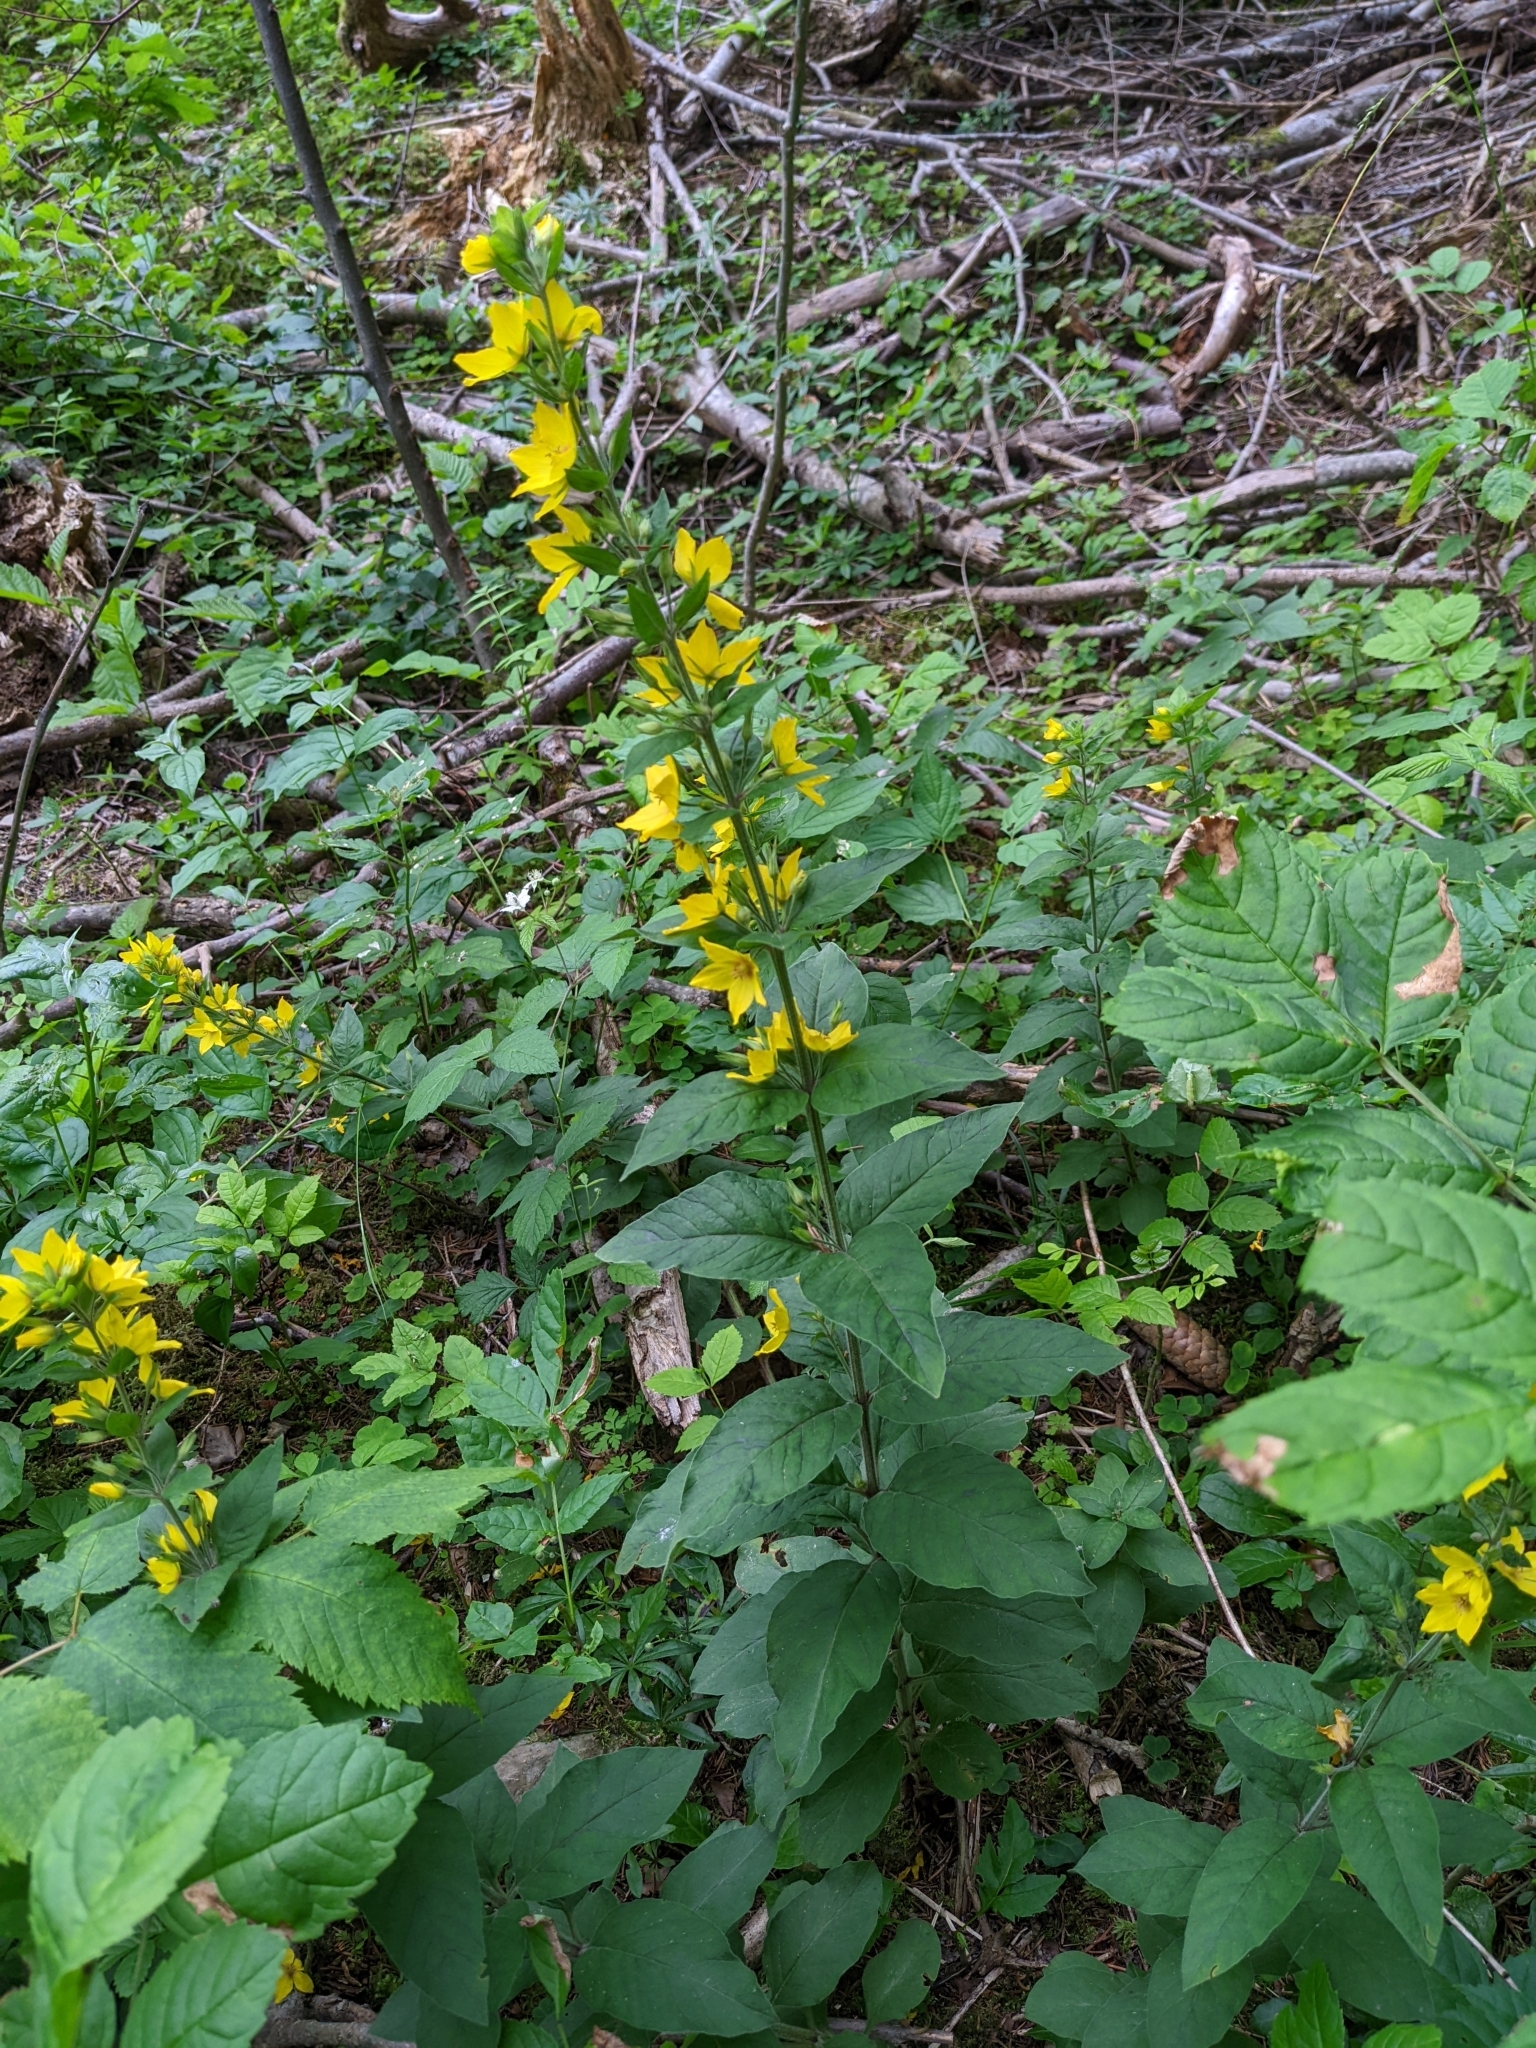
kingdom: Plantae
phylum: Tracheophyta
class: Magnoliopsida
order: Ericales
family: Primulaceae
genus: Lysimachia
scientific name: Lysimachia punctata
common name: Dotted loosestrife
